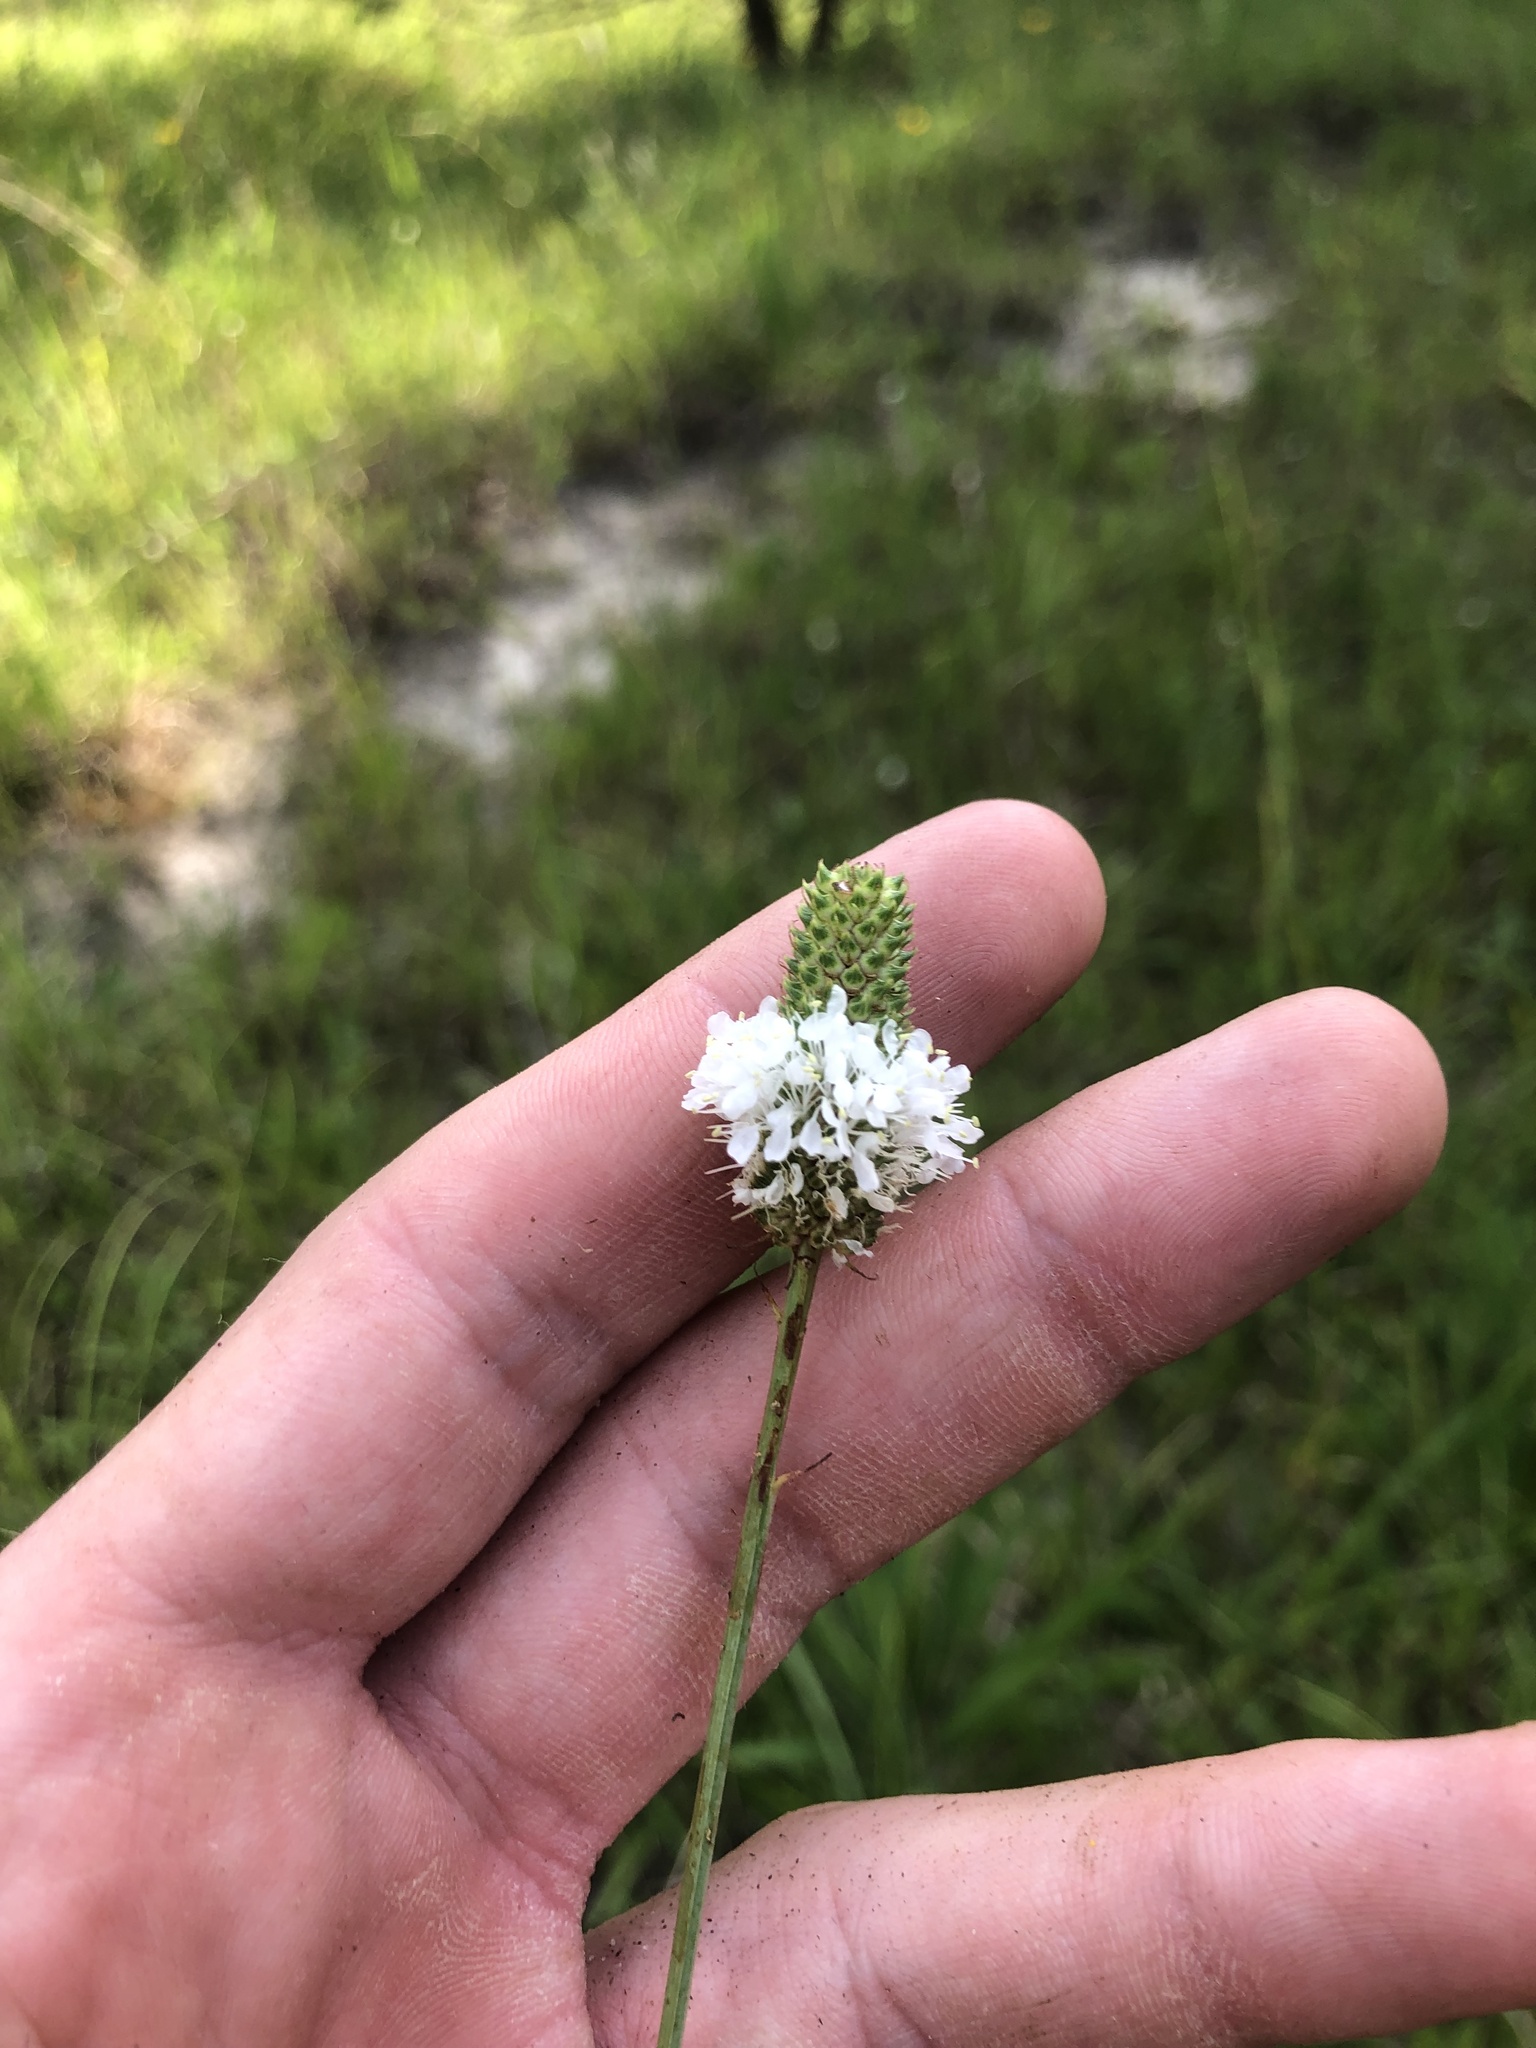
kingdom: Plantae
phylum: Tracheophyta
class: Magnoliopsida
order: Fabales
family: Fabaceae
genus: Dalea
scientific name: Dalea candida
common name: White prairie-clover
